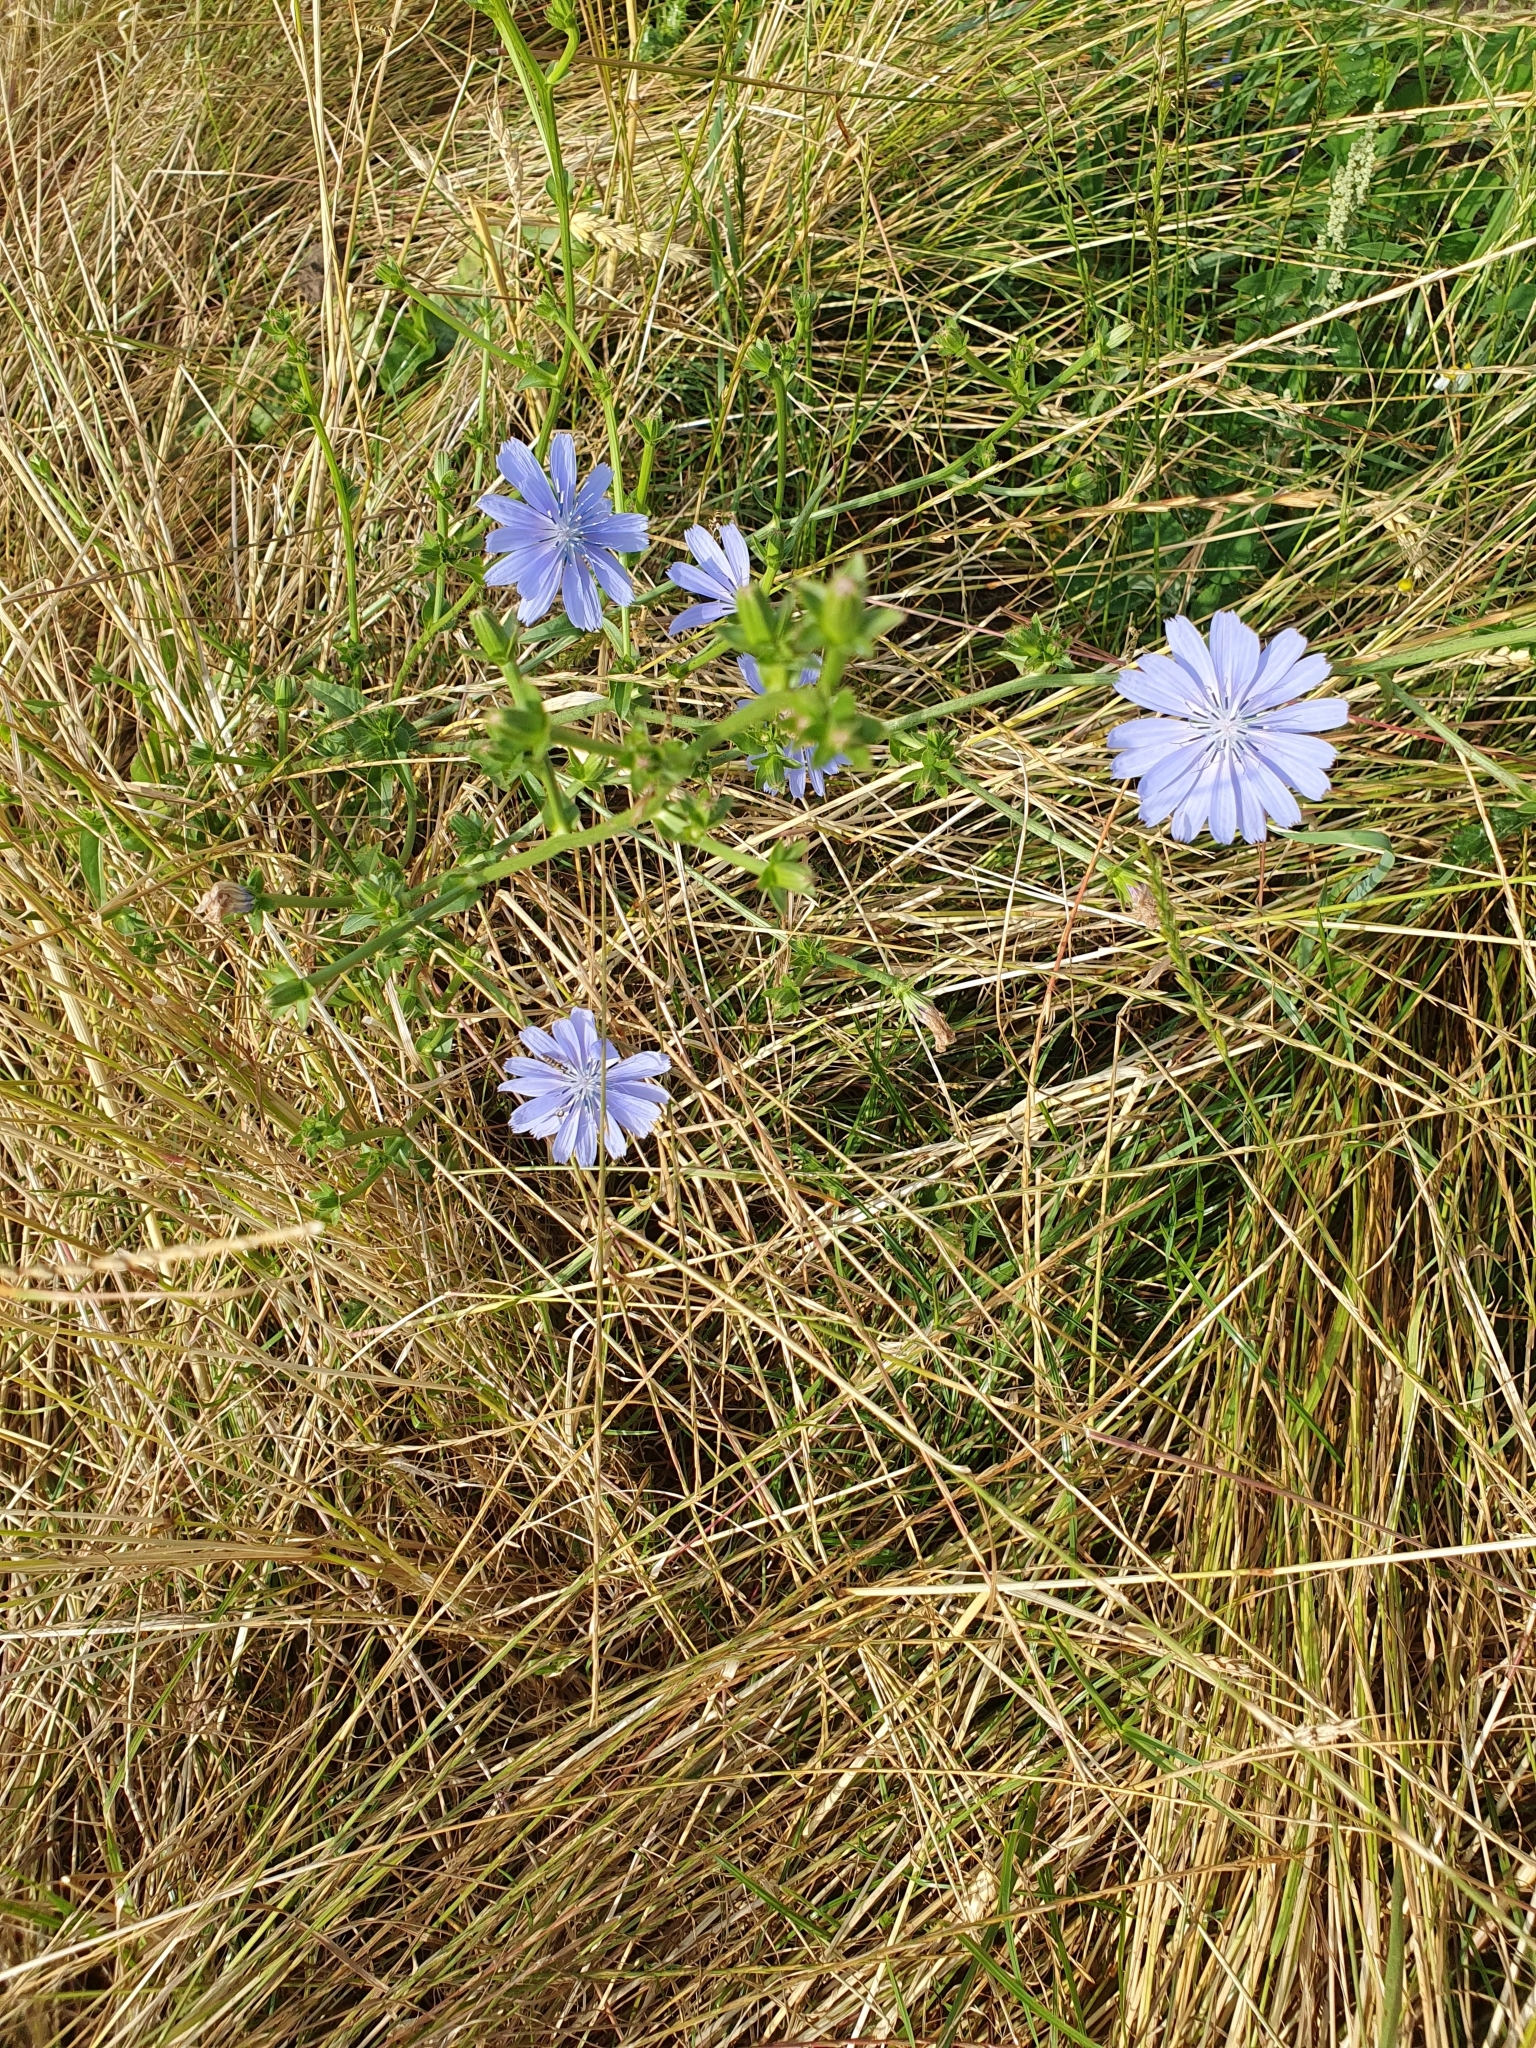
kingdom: Plantae
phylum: Tracheophyta
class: Magnoliopsida
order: Asterales
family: Asteraceae
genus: Cichorium
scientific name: Cichorium intybus
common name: Chicory
